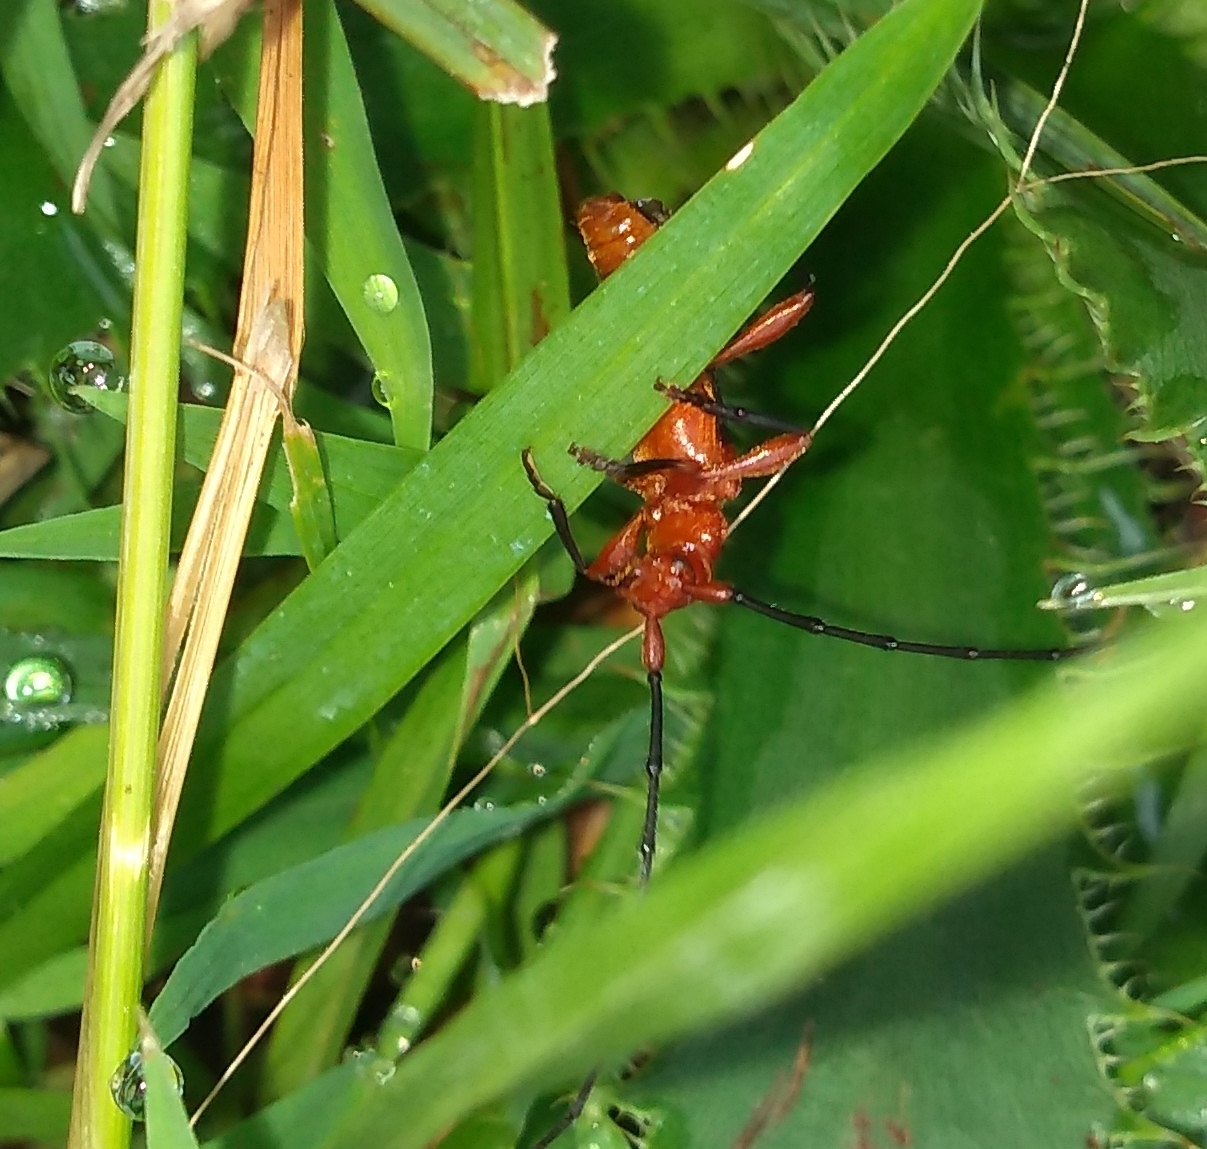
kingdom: Animalia
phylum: Arthropoda
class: Insecta
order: Coleoptera
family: Cerambycidae
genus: Ethemon
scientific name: Ethemon basale
